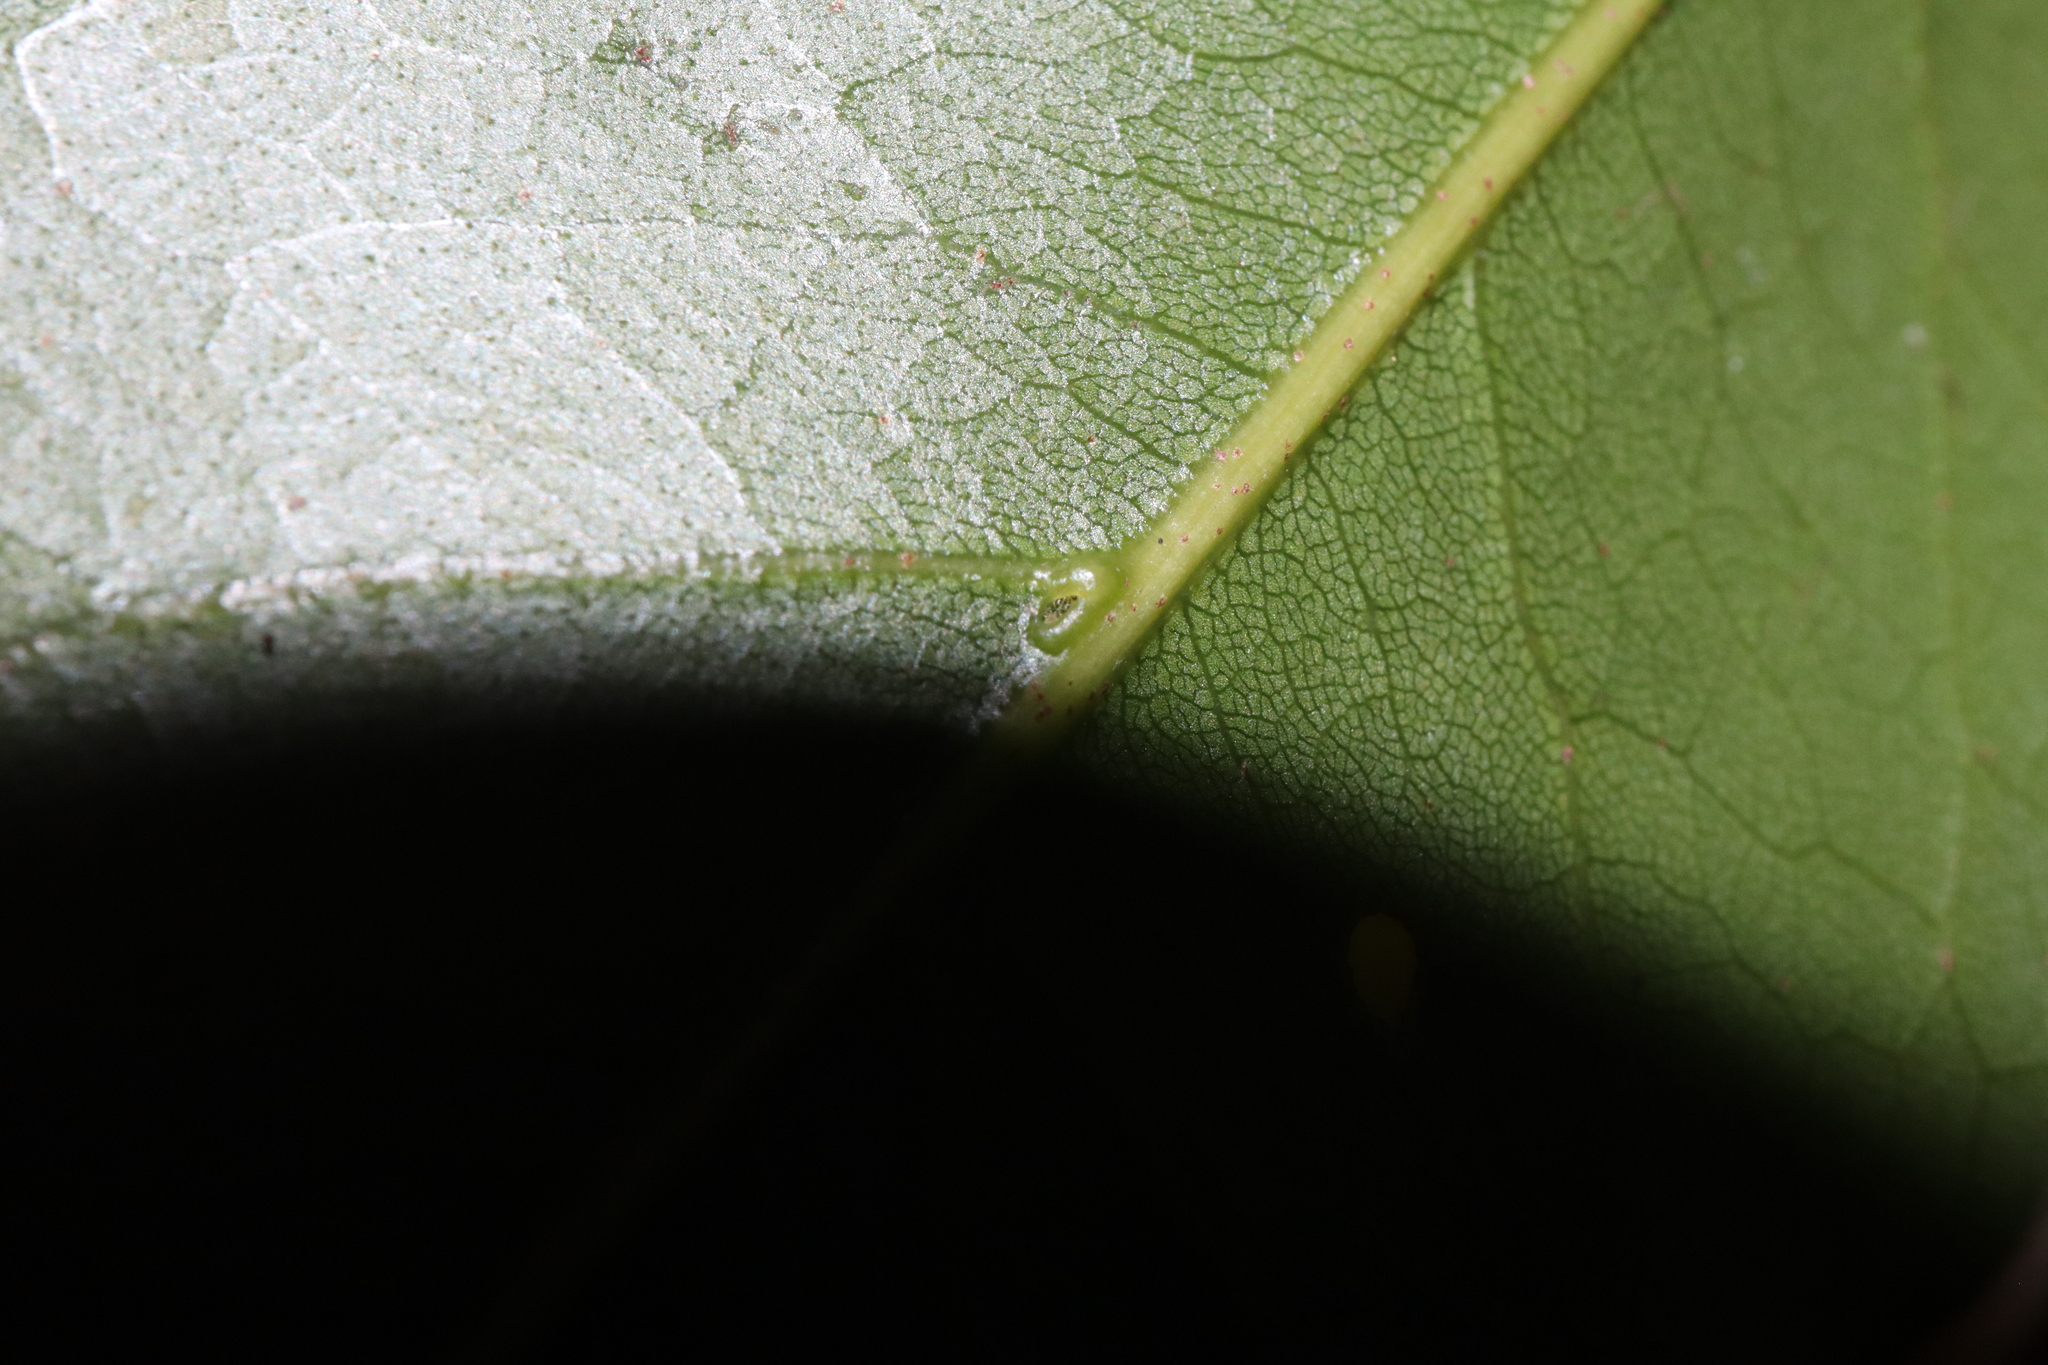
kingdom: Plantae
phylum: Tracheophyta
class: Magnoliopsida
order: Malvales
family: Malvaceae
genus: Argyrodendron
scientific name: Argyrodendron actinophyllum
